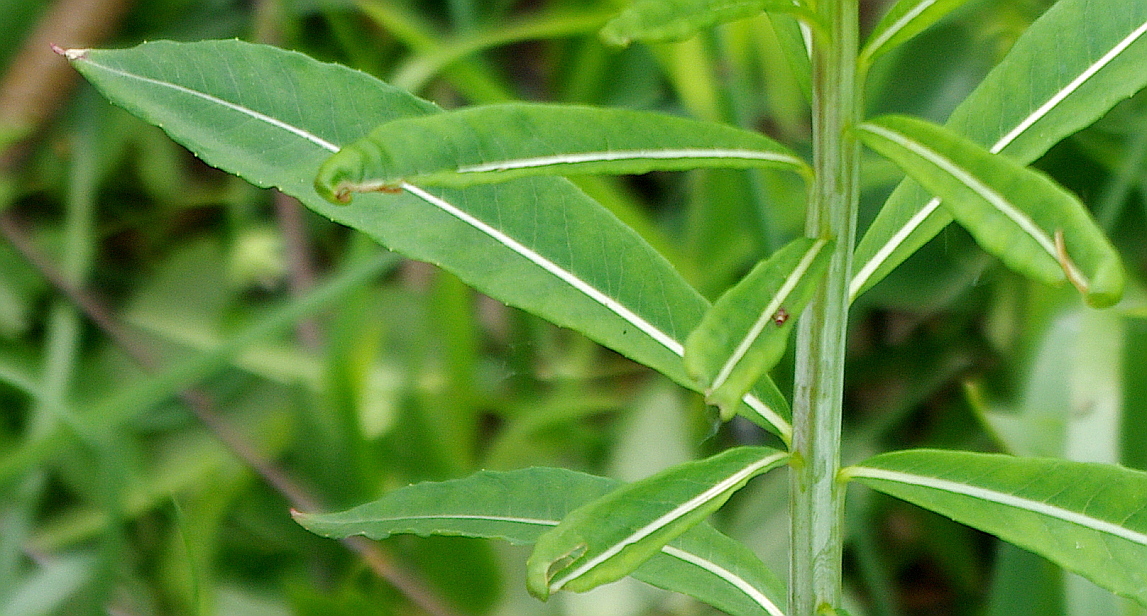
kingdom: Plantae
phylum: Tracheophyta
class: Magnoliopsida
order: Myrtales
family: Onagraceae
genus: Chamaenerion
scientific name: Chamaenerion angustifolium
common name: Fireweed
